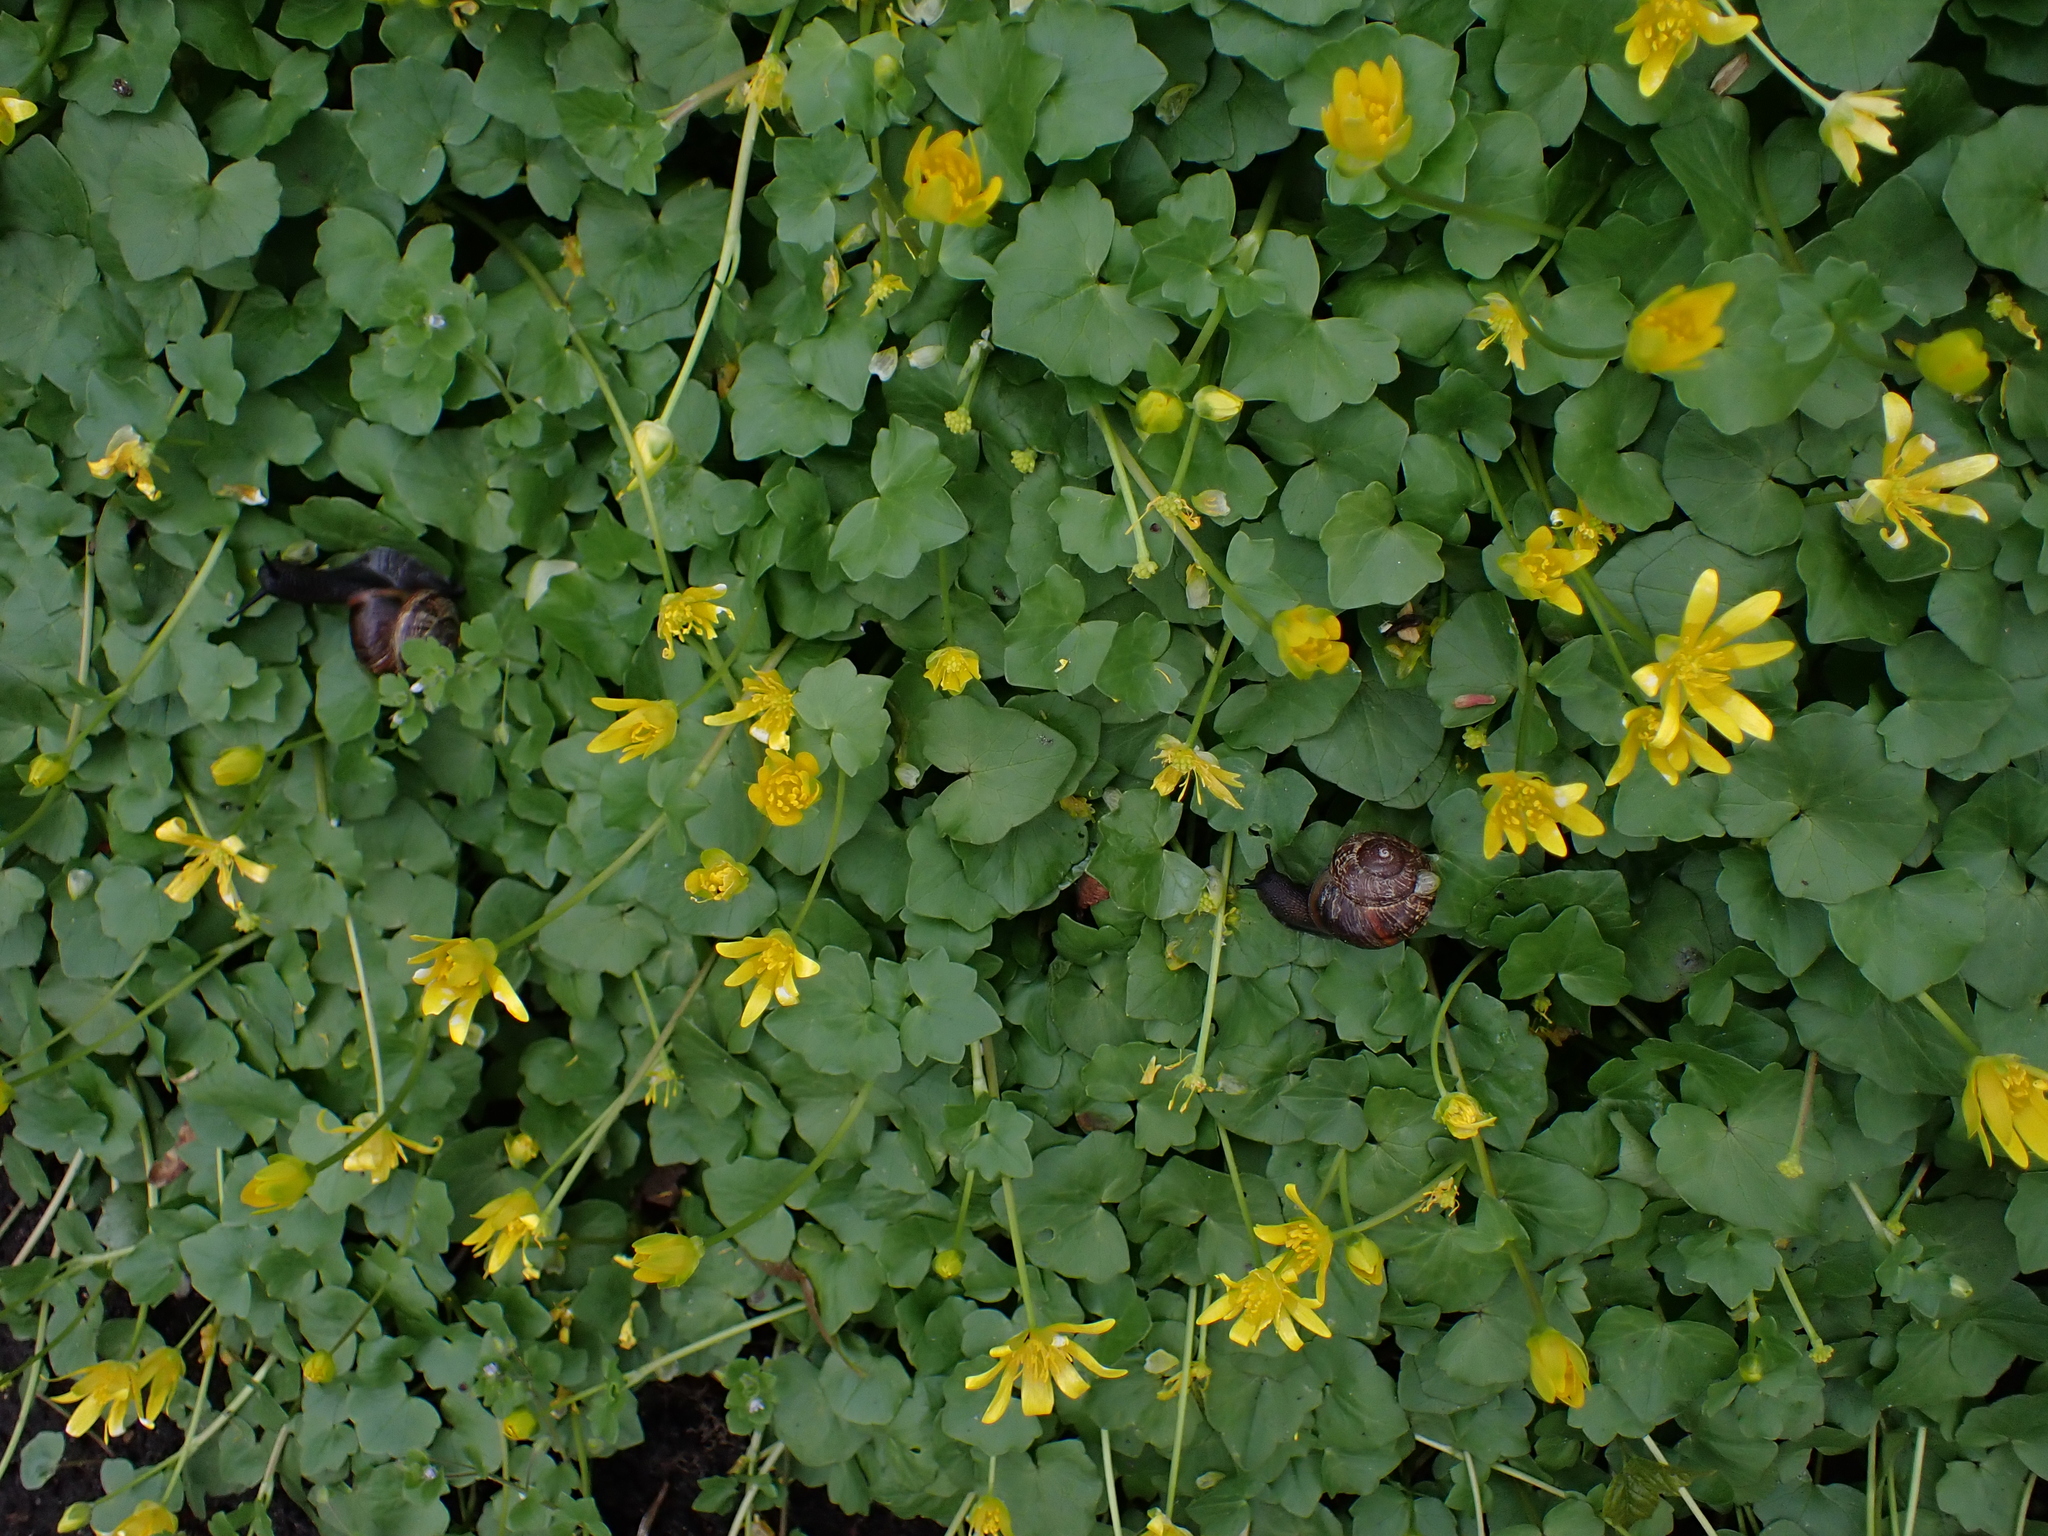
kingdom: Animalia
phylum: Mollusca
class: Gastropoda
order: Stylommatophora
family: Helicidae
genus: Arianta
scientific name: Arianta arbustorum
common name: Copse snail
